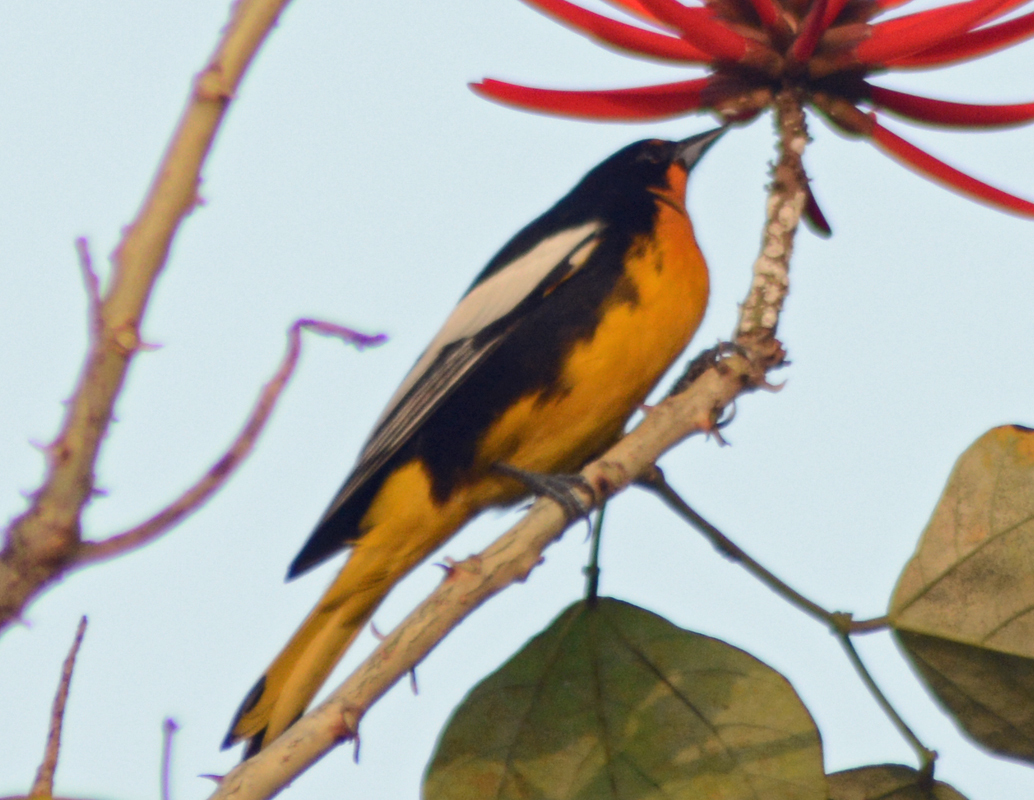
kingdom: Animalia
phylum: Chordata
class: Aves
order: Passeriformes
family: Icteridae
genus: Icterus
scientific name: Icterus abeillei
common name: Black-backed oriole
